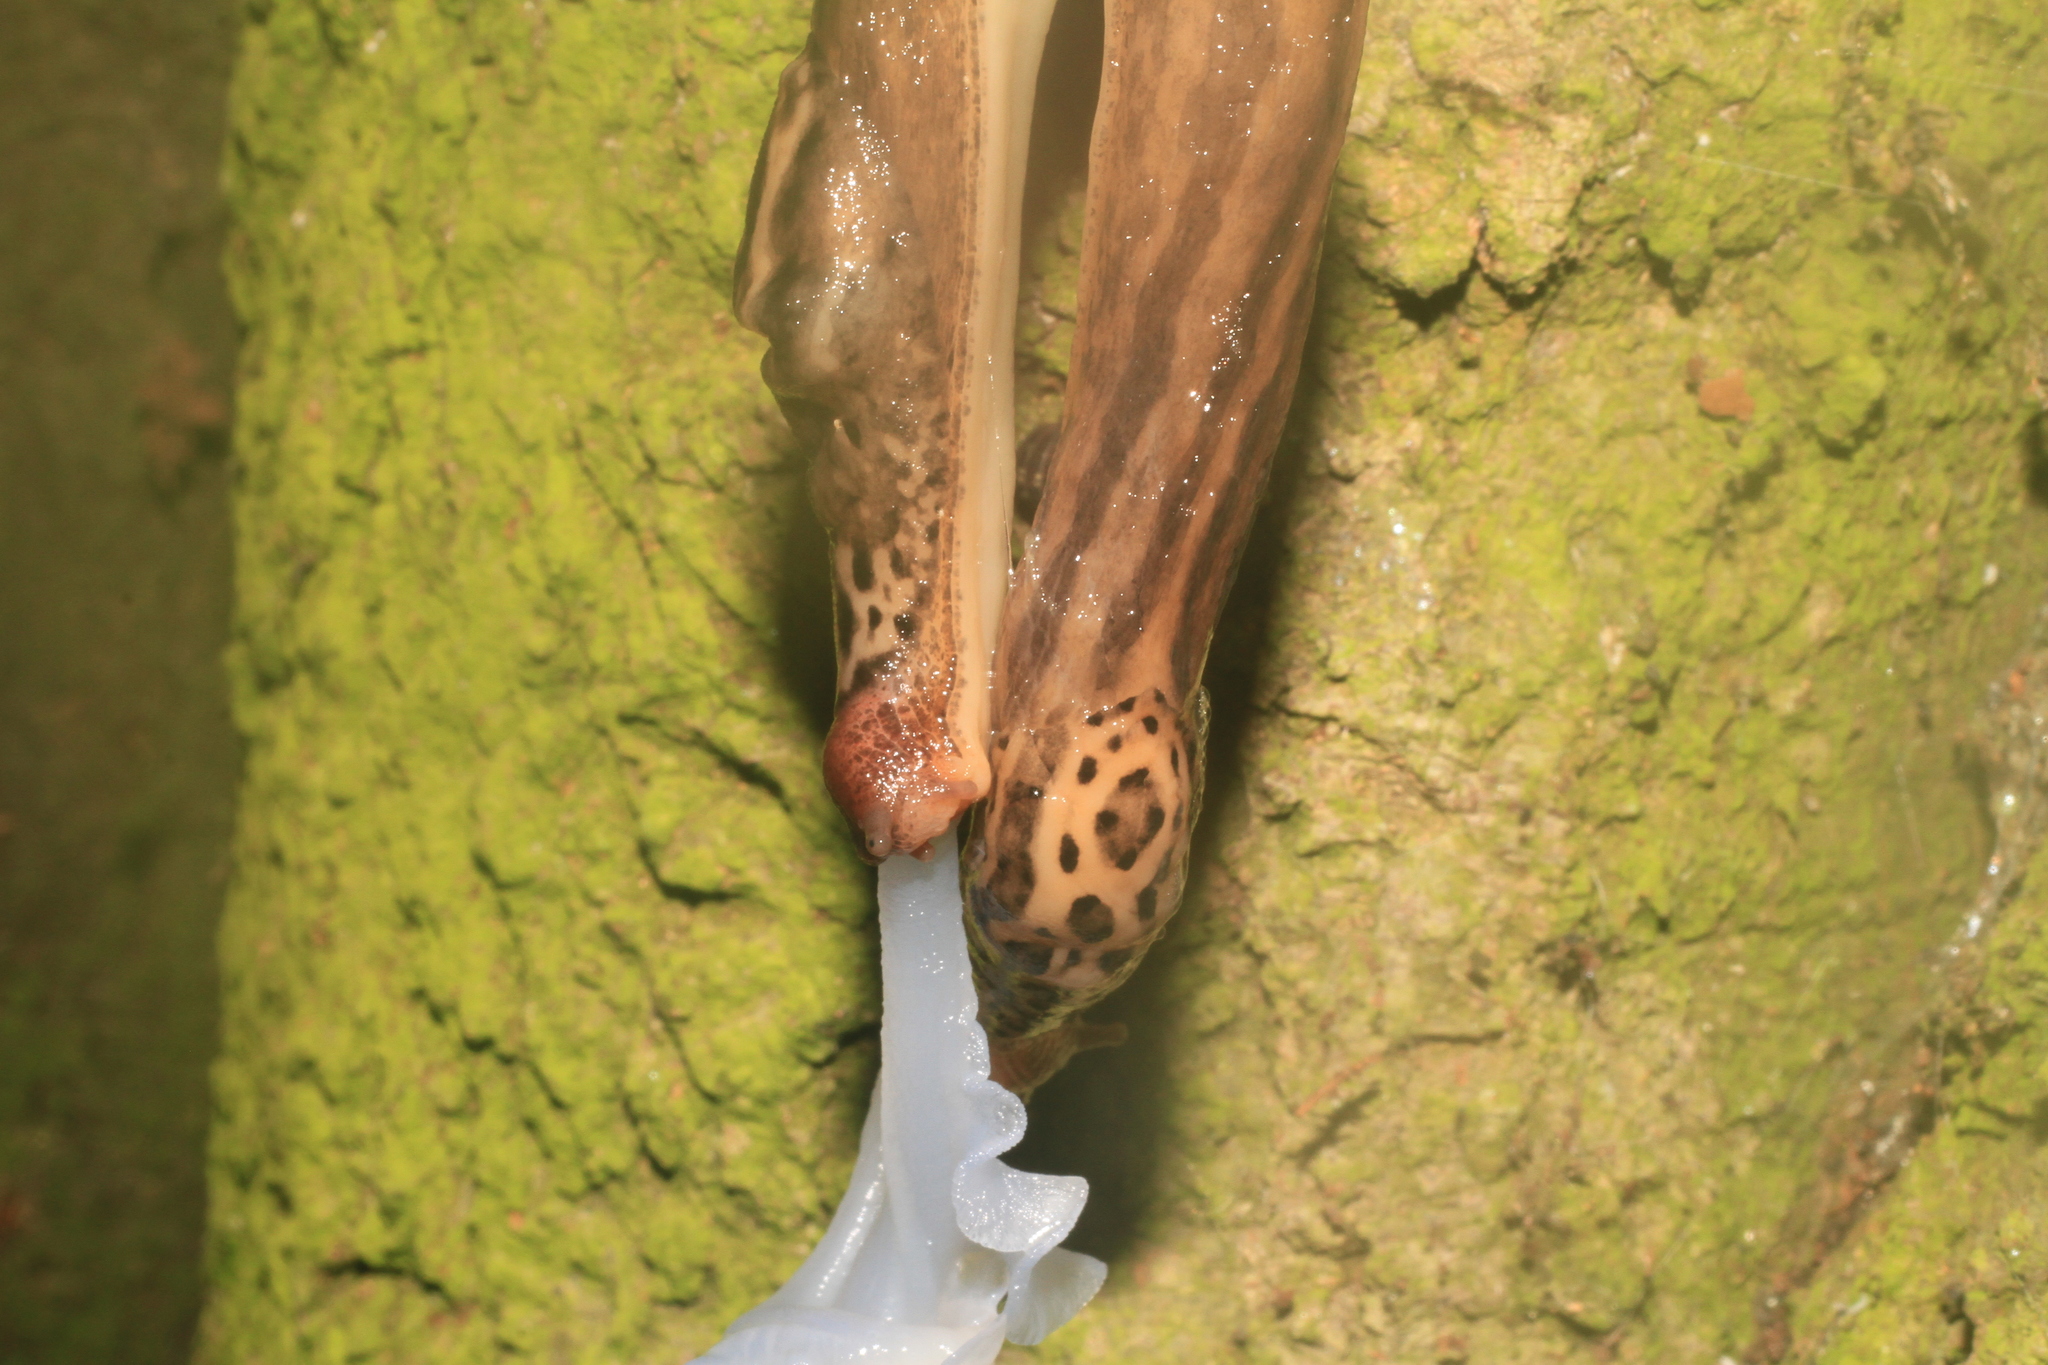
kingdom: Animalia
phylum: Mollusca
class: Gastropoda
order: Stylommatophora
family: Limacidae
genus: Limax
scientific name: Limax maximus
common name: Great grey slug
